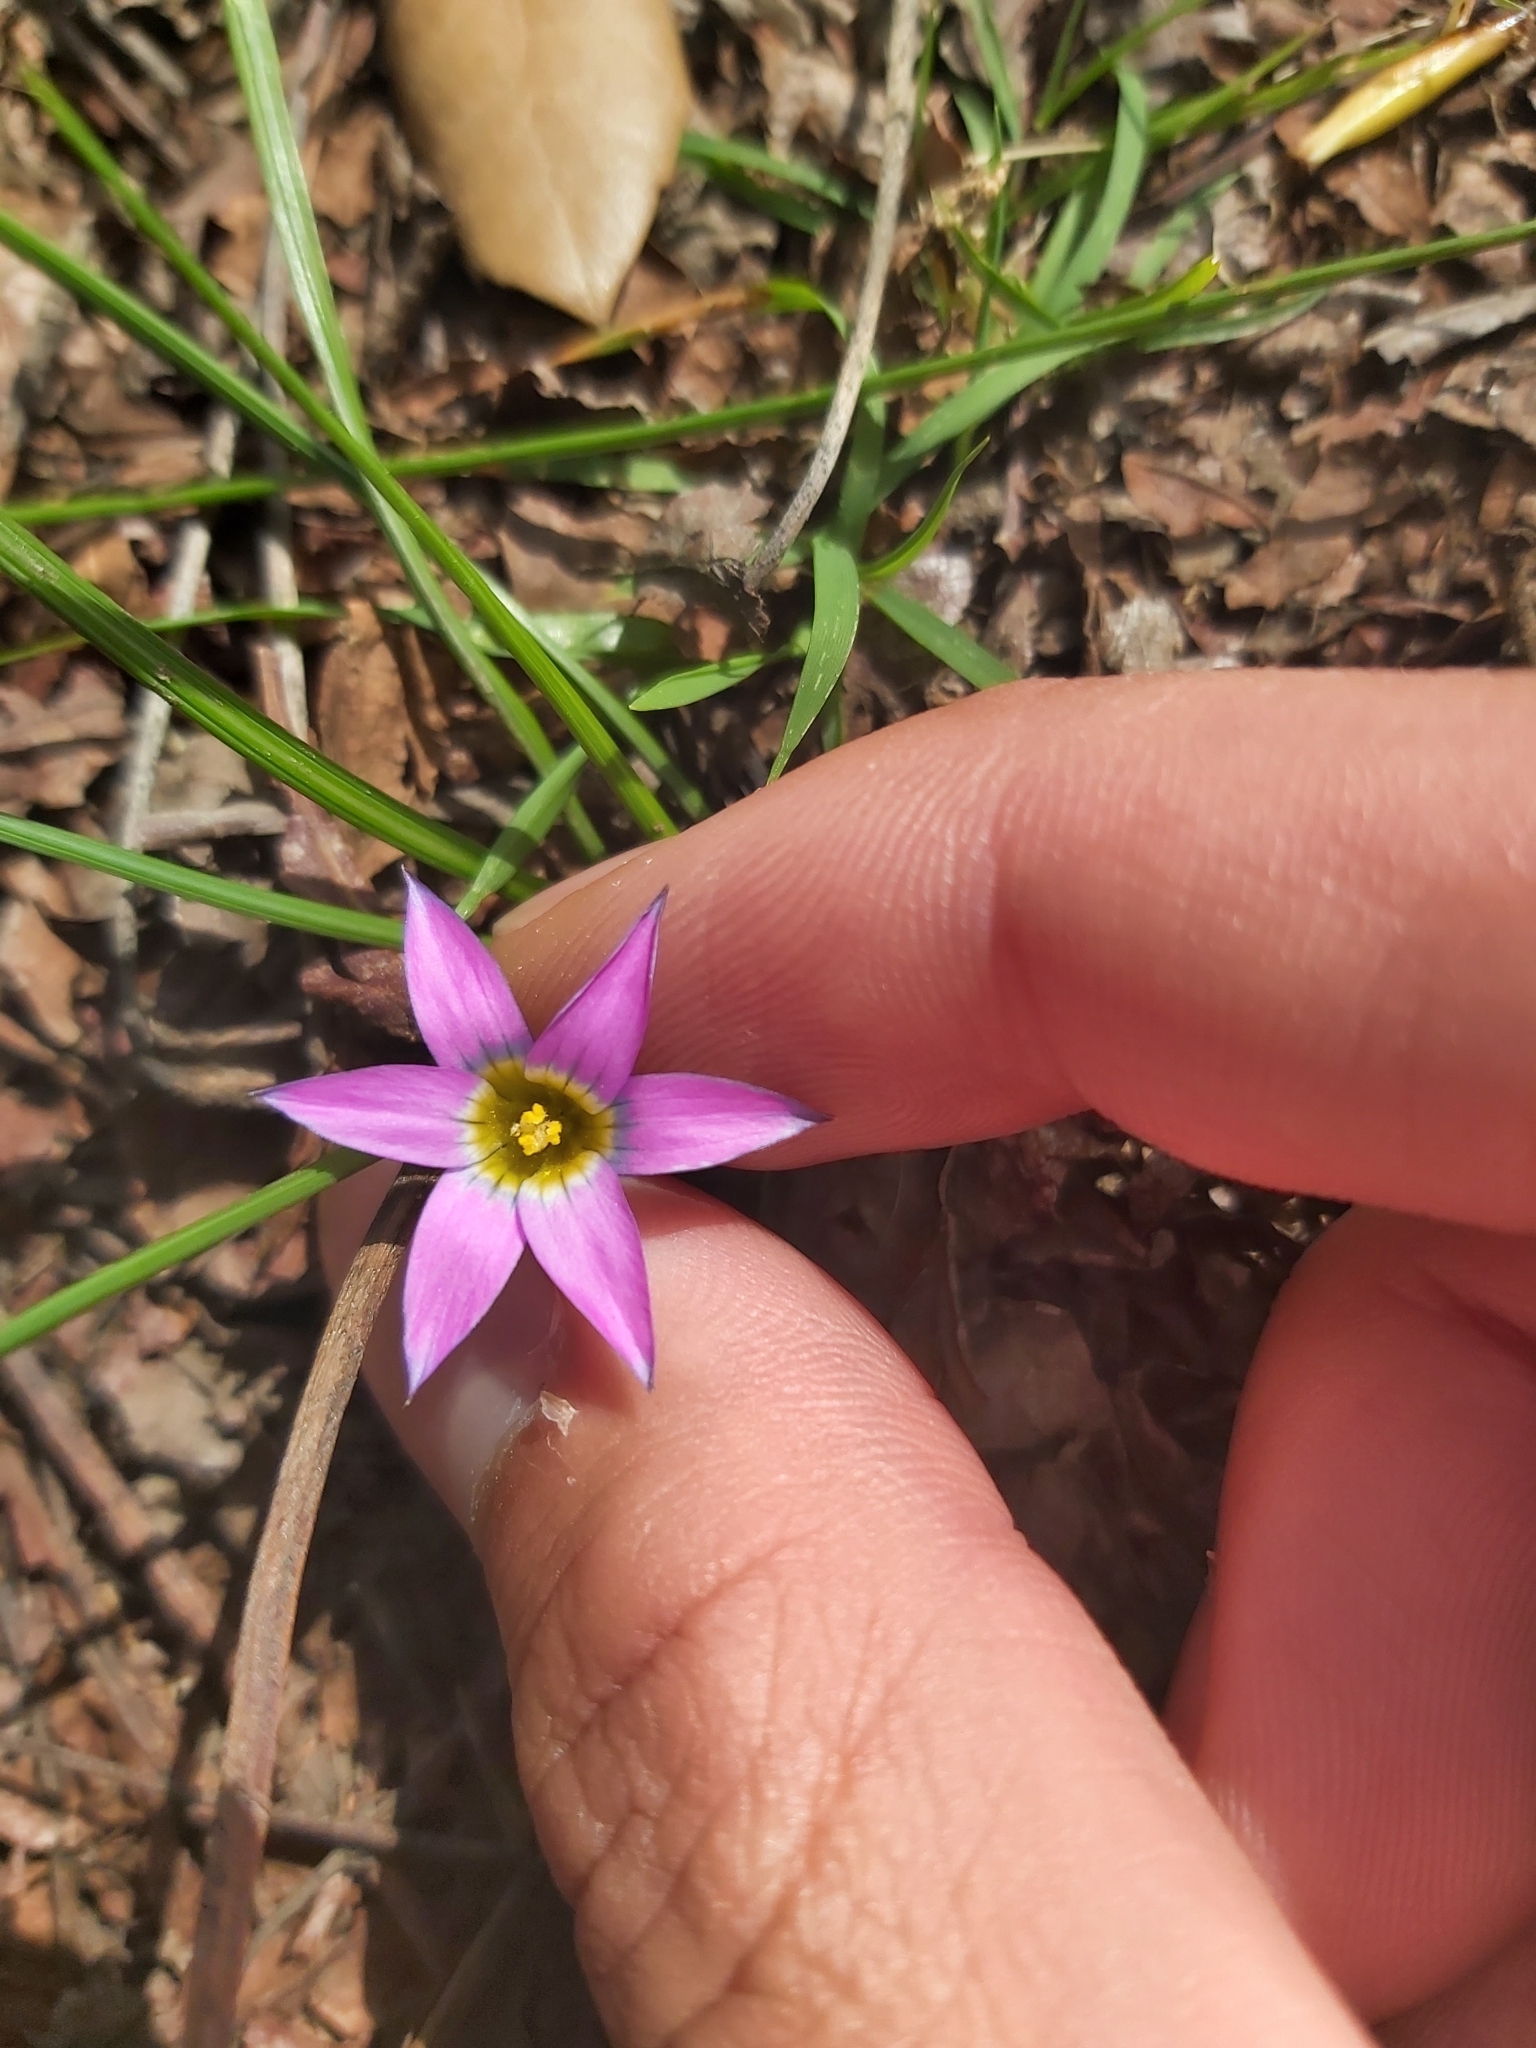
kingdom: Plantae
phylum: Tracheophyta
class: Liliopsida
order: Asparagales
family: Iridaceae
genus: Romulea
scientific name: Romulea rosea
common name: Oniongrass
